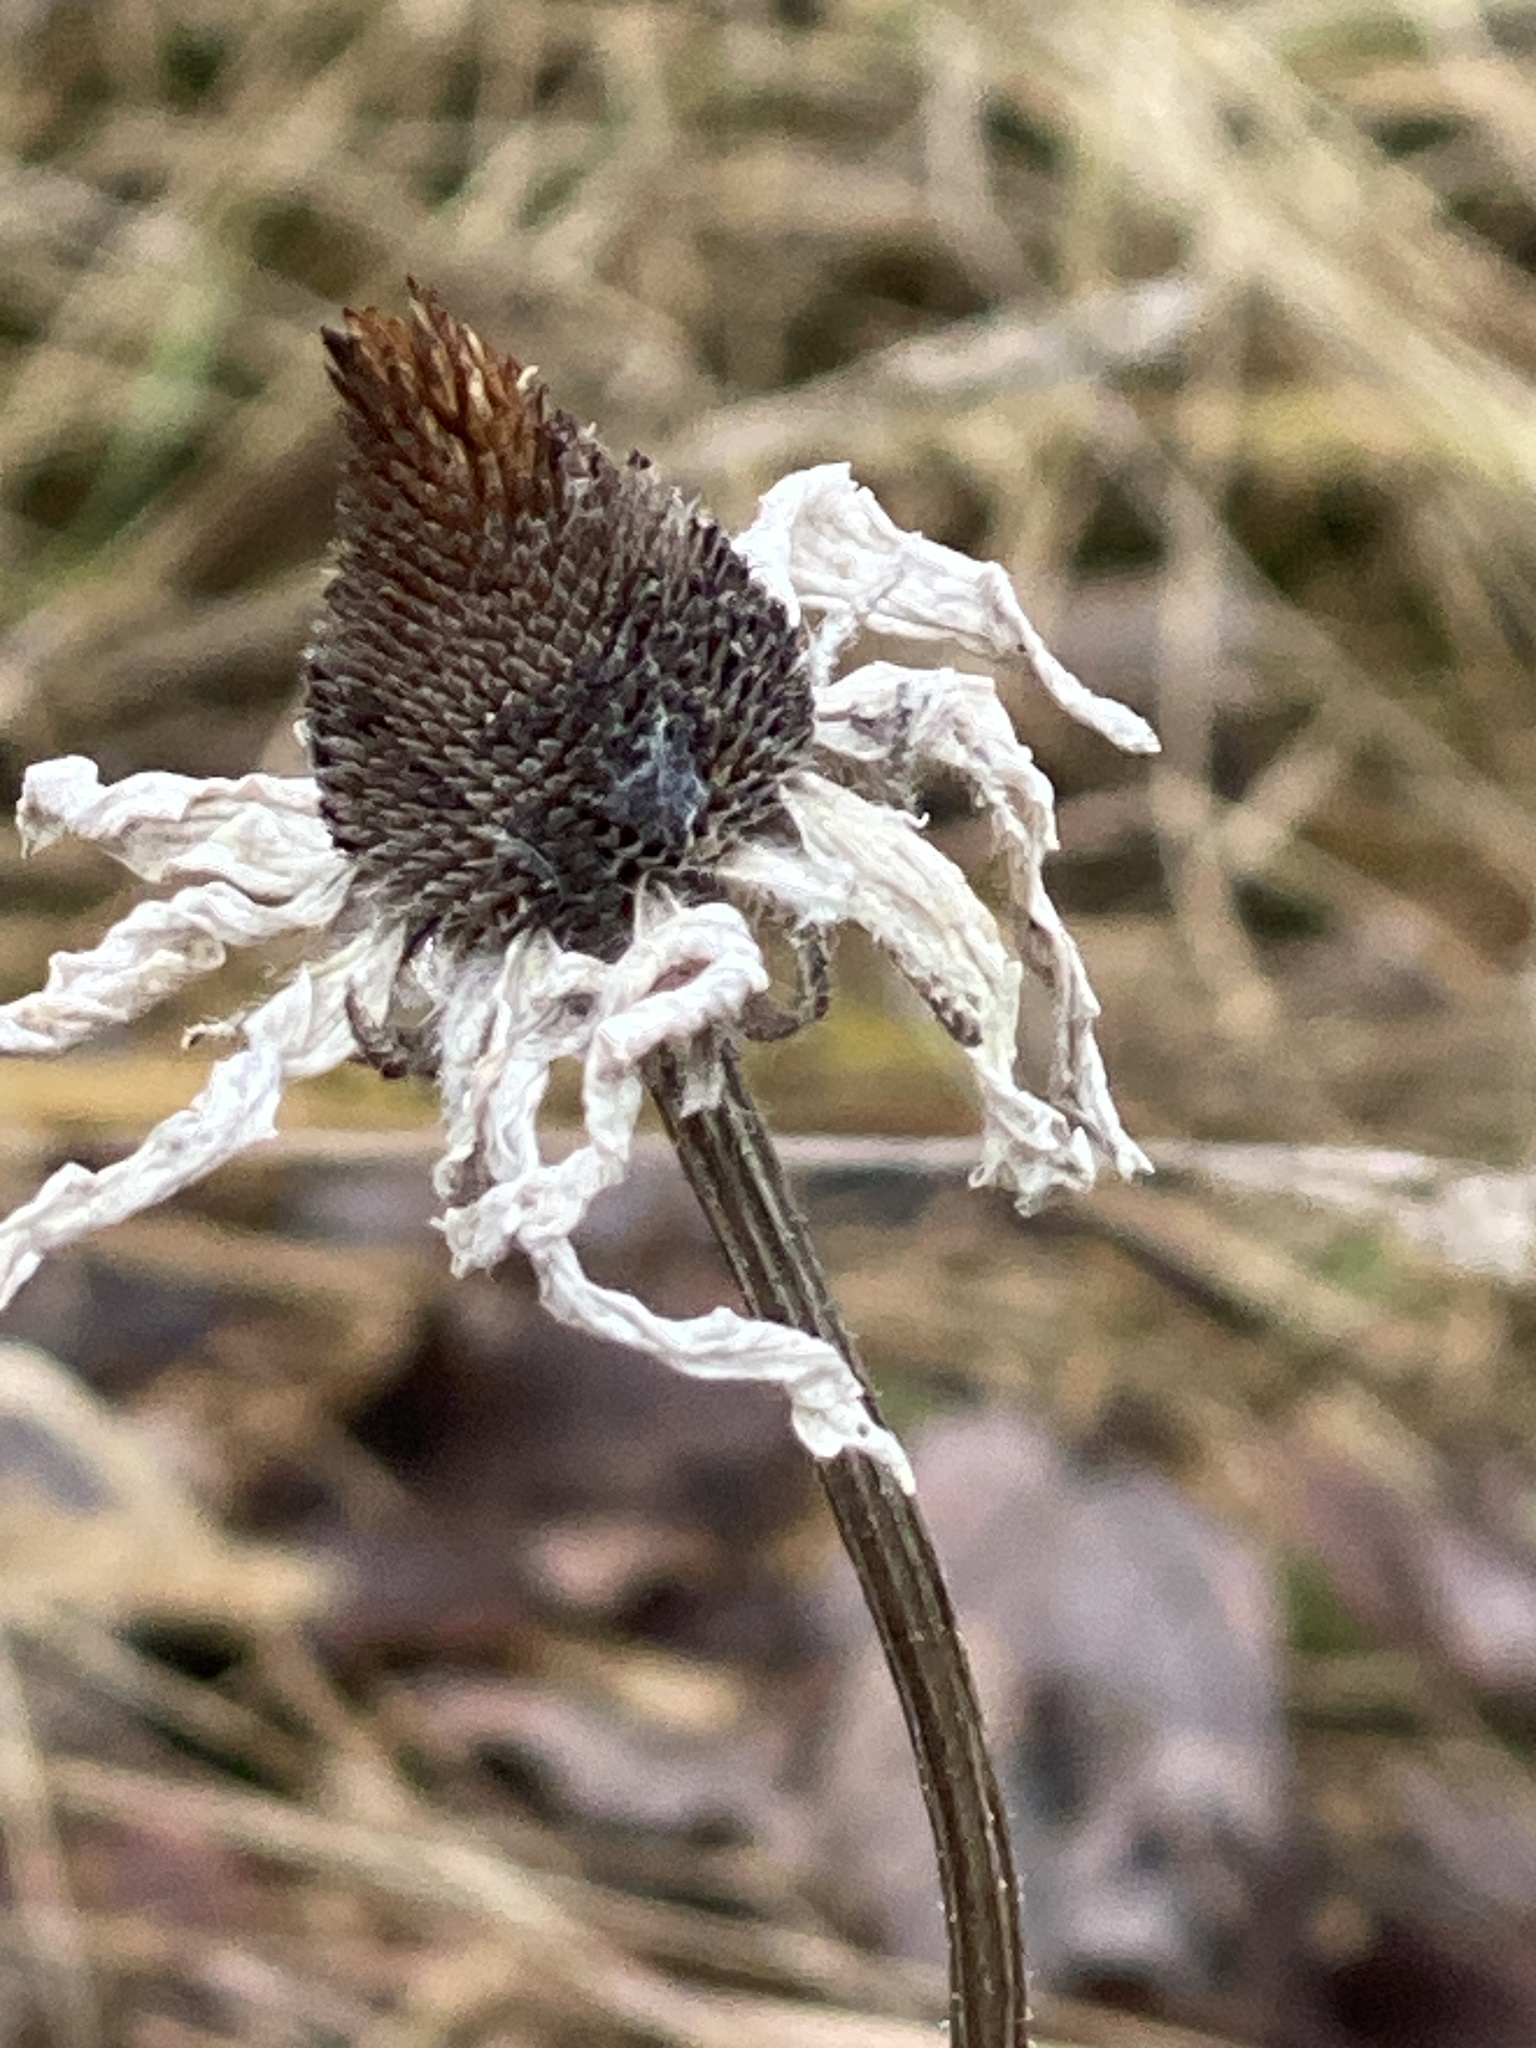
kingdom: Plantae
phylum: Tracheophyta
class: Magnoliopsida
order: Asterales
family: Asteraceae
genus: Rudbeckia
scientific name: Rudbeckia hirta
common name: Black-eyed-susan
